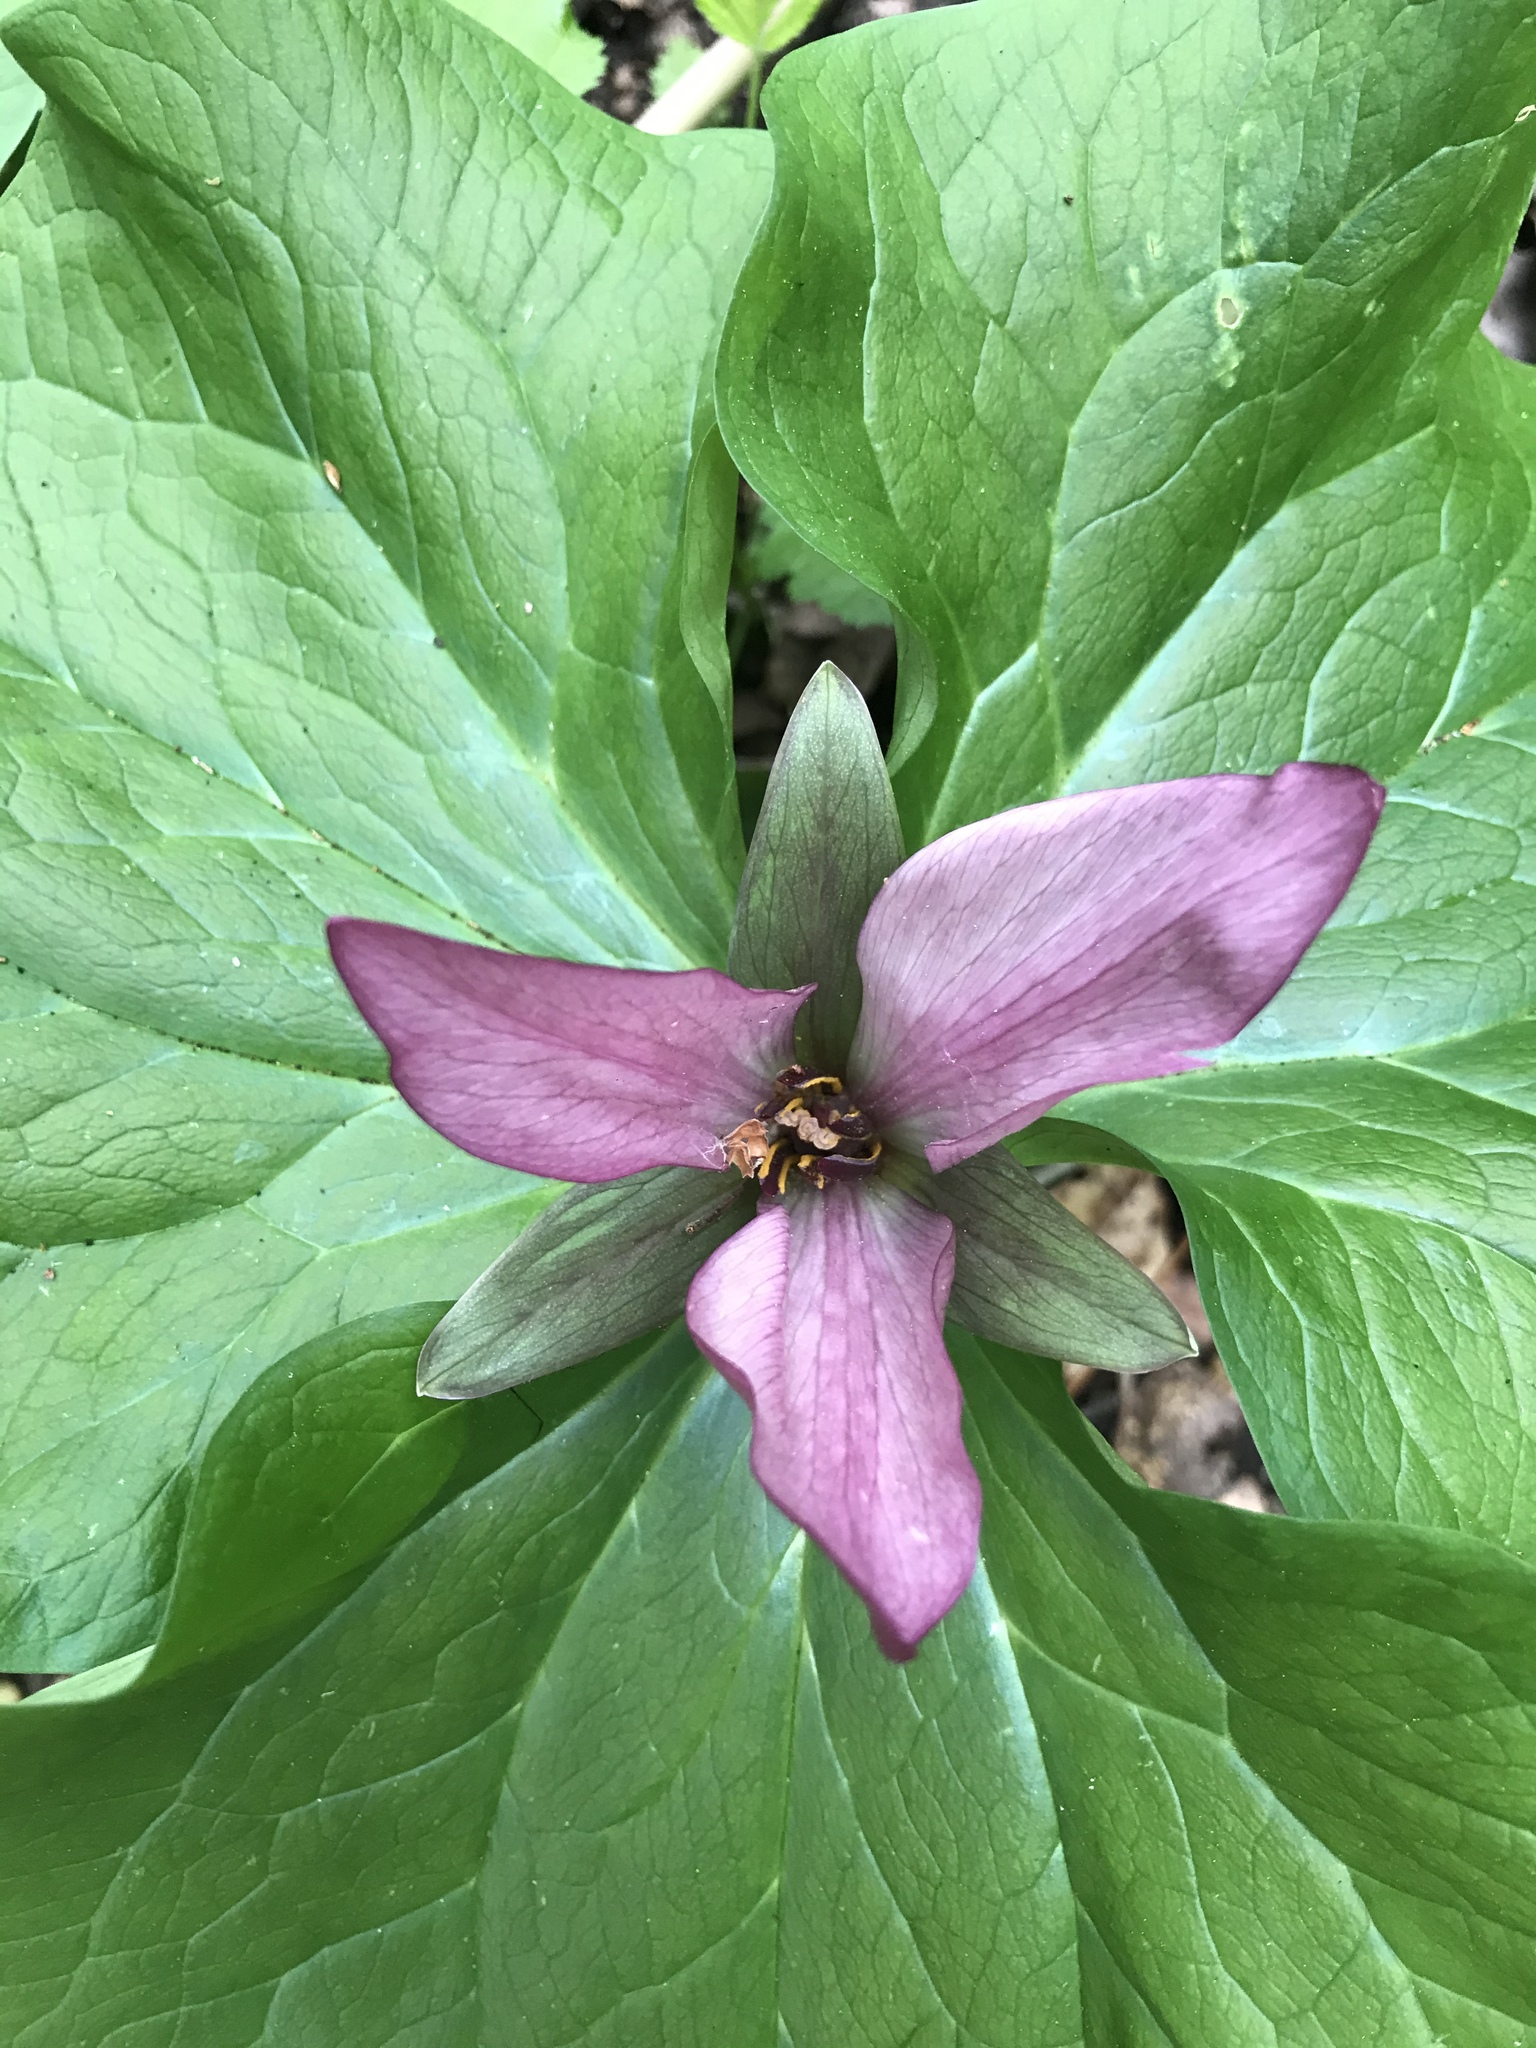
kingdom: Plantae
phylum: Tracheophyta
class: Liliopsida
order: Liliales
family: Melanthiaceae
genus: Trillium
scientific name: Trillium chloropetalum
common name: Giant trillium
